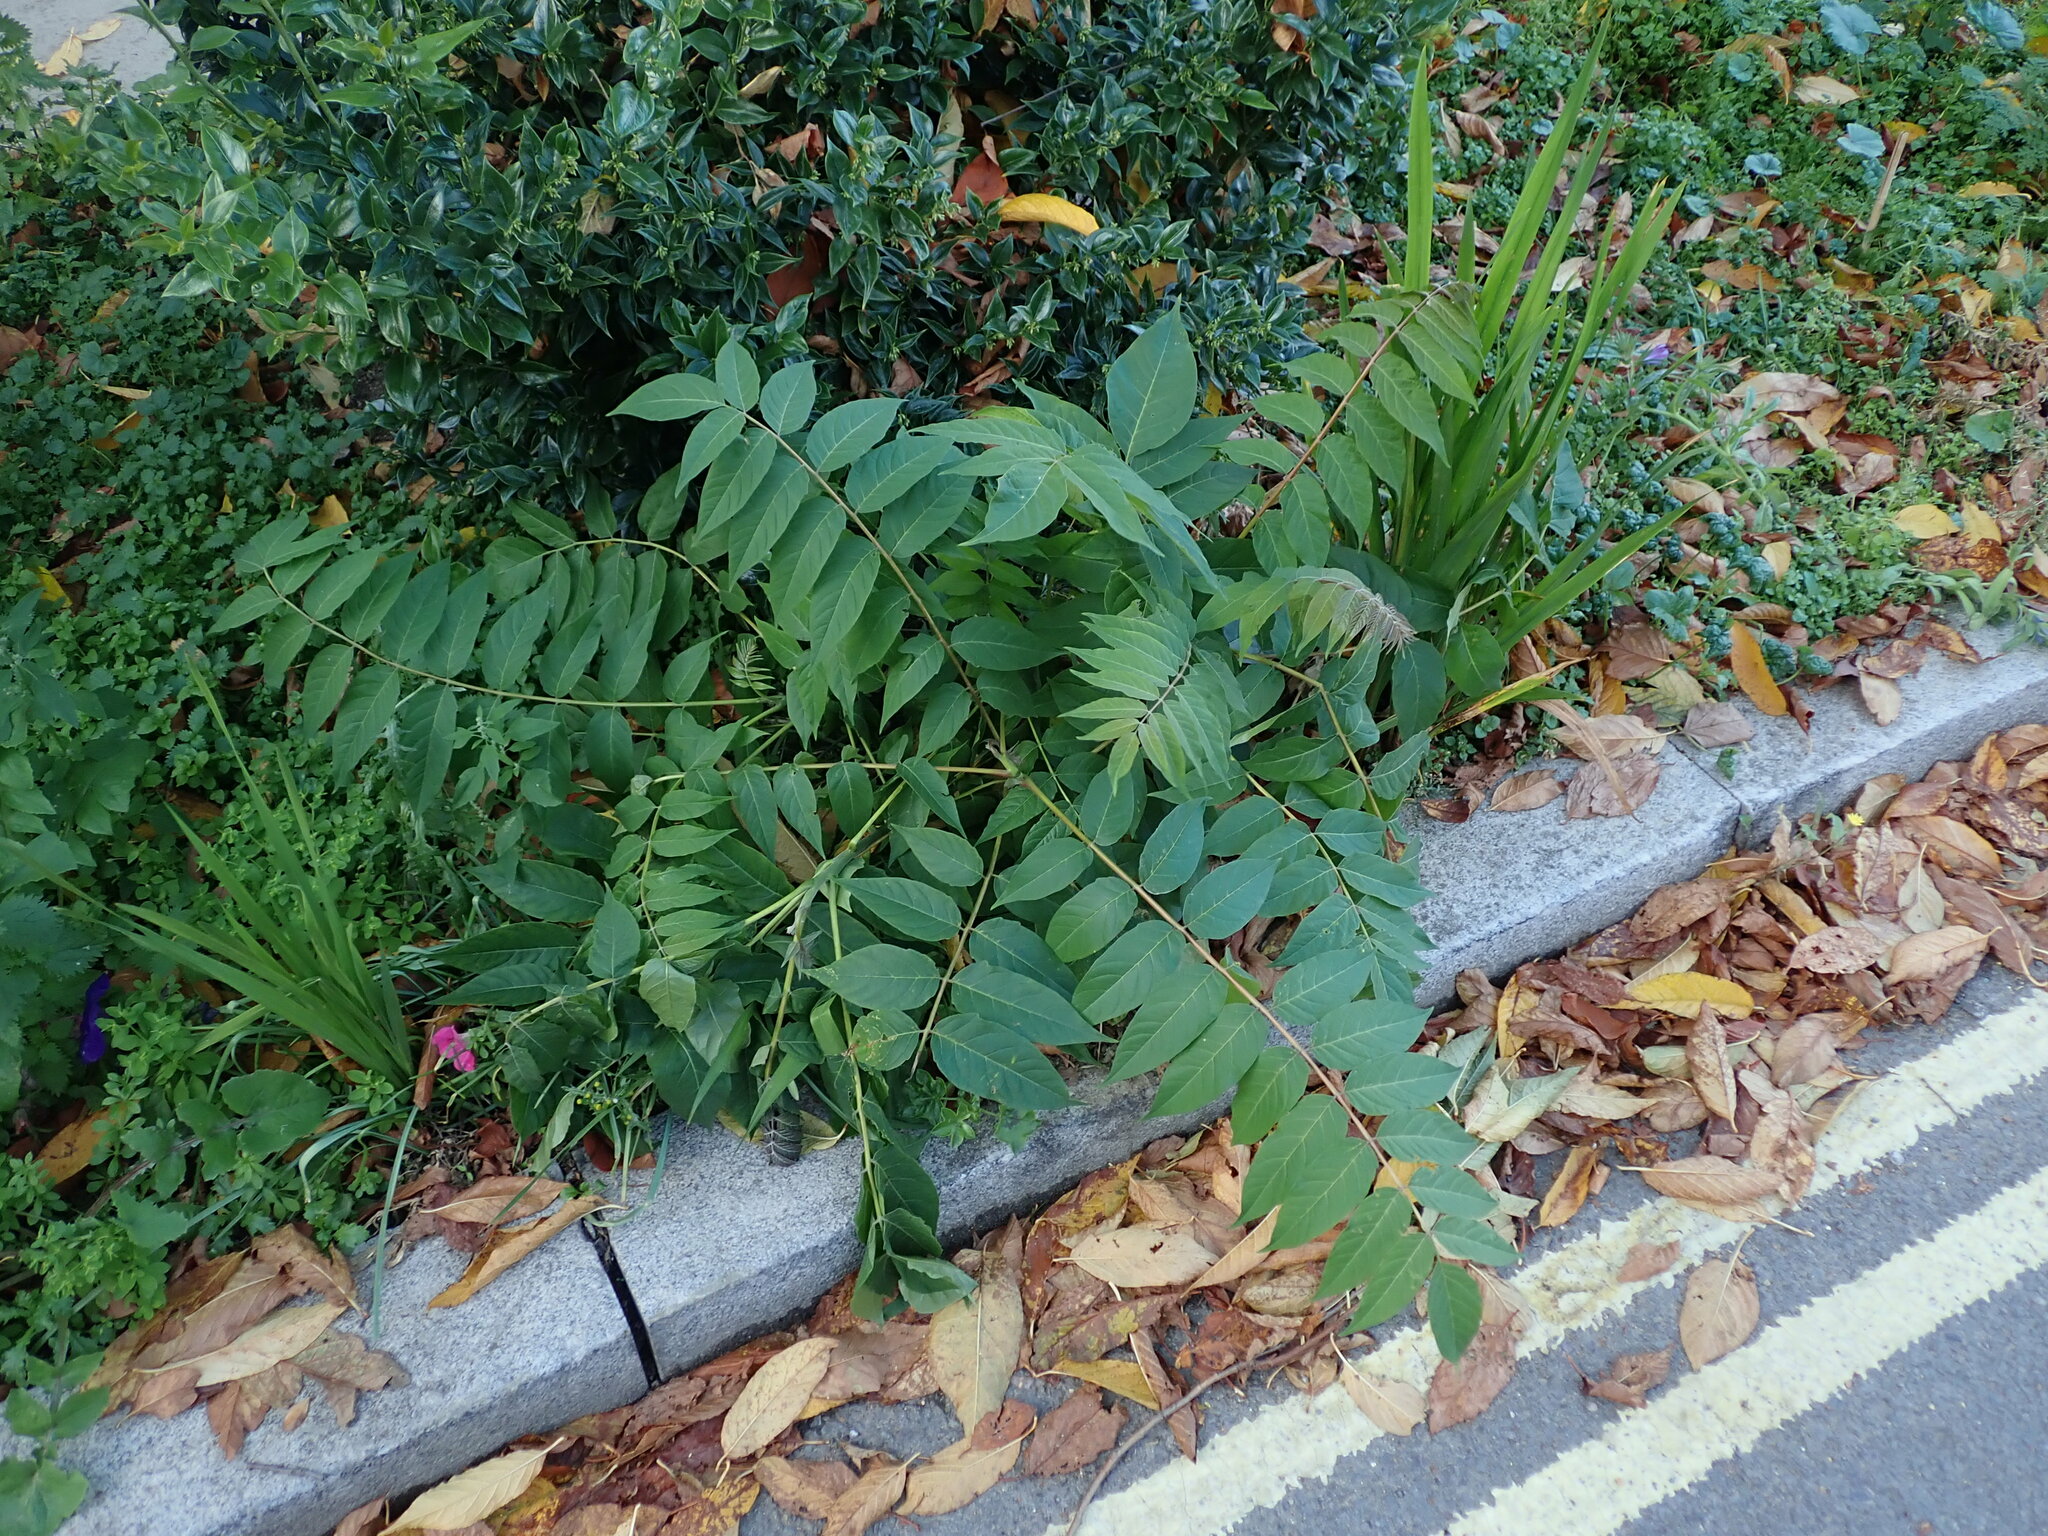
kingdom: Plantae
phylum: Tracheophyta
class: Magnoliopsida
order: Sapindales
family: Simaroubaceae
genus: Ailanthus
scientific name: Ailanthus altissima
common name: Tree-of-heaven
